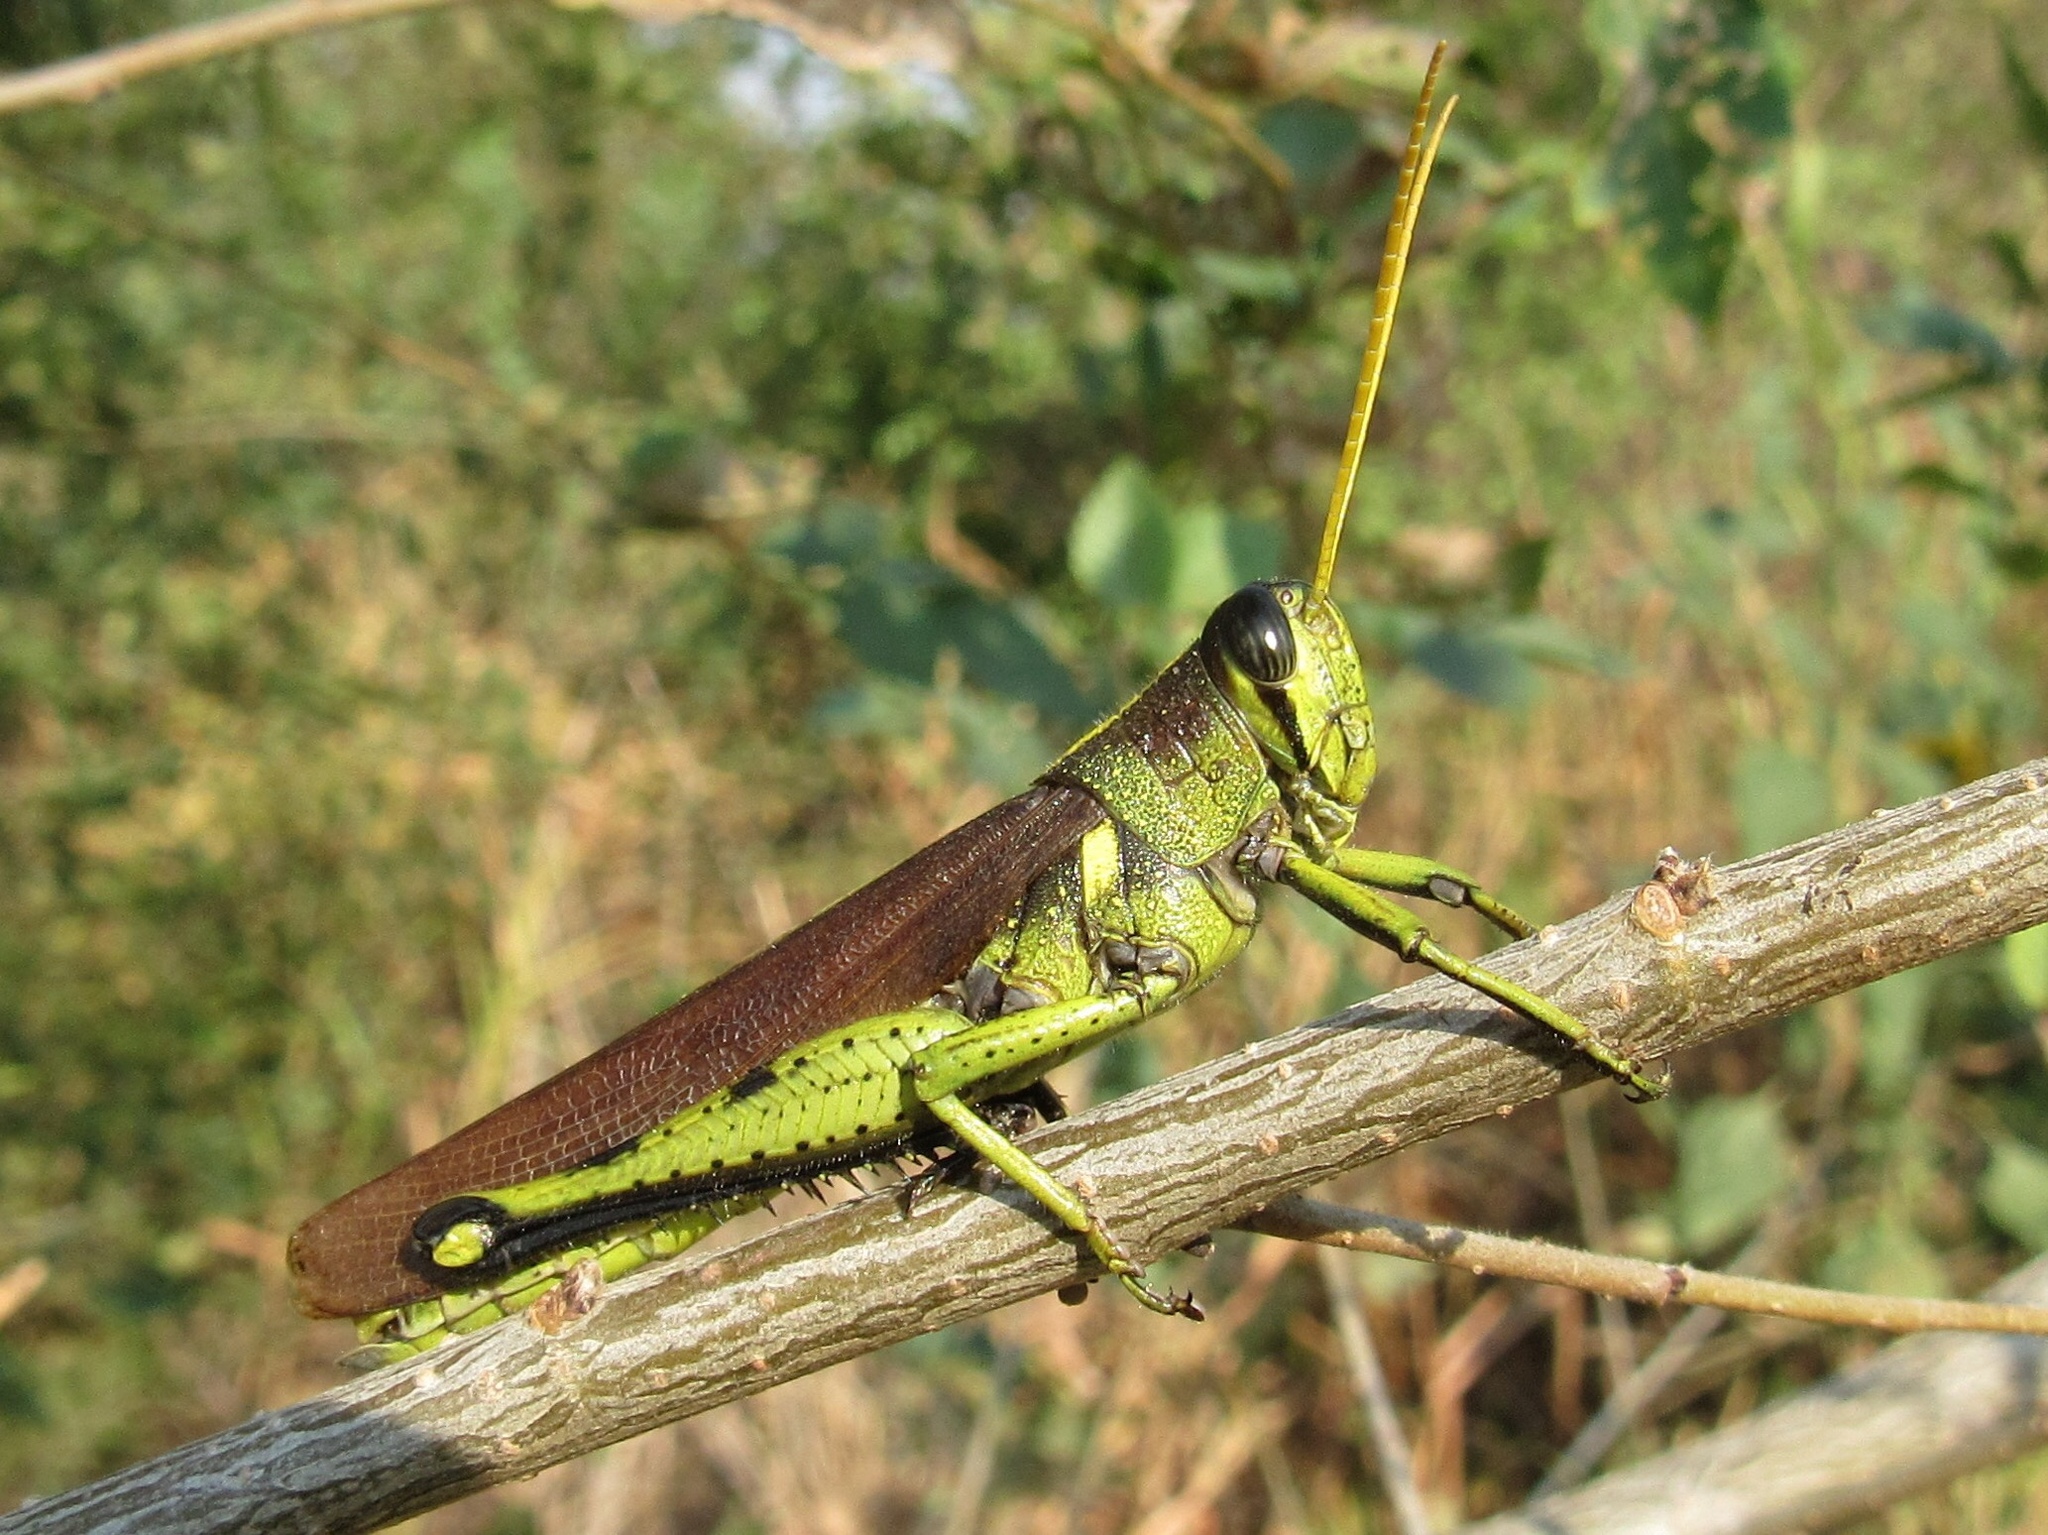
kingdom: Animalia
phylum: Arthropoda
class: Insecta
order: Orthoptera
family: Acrididae
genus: Schistocerca
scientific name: Schistocerca obscura
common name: Obscure bird grasshopper
